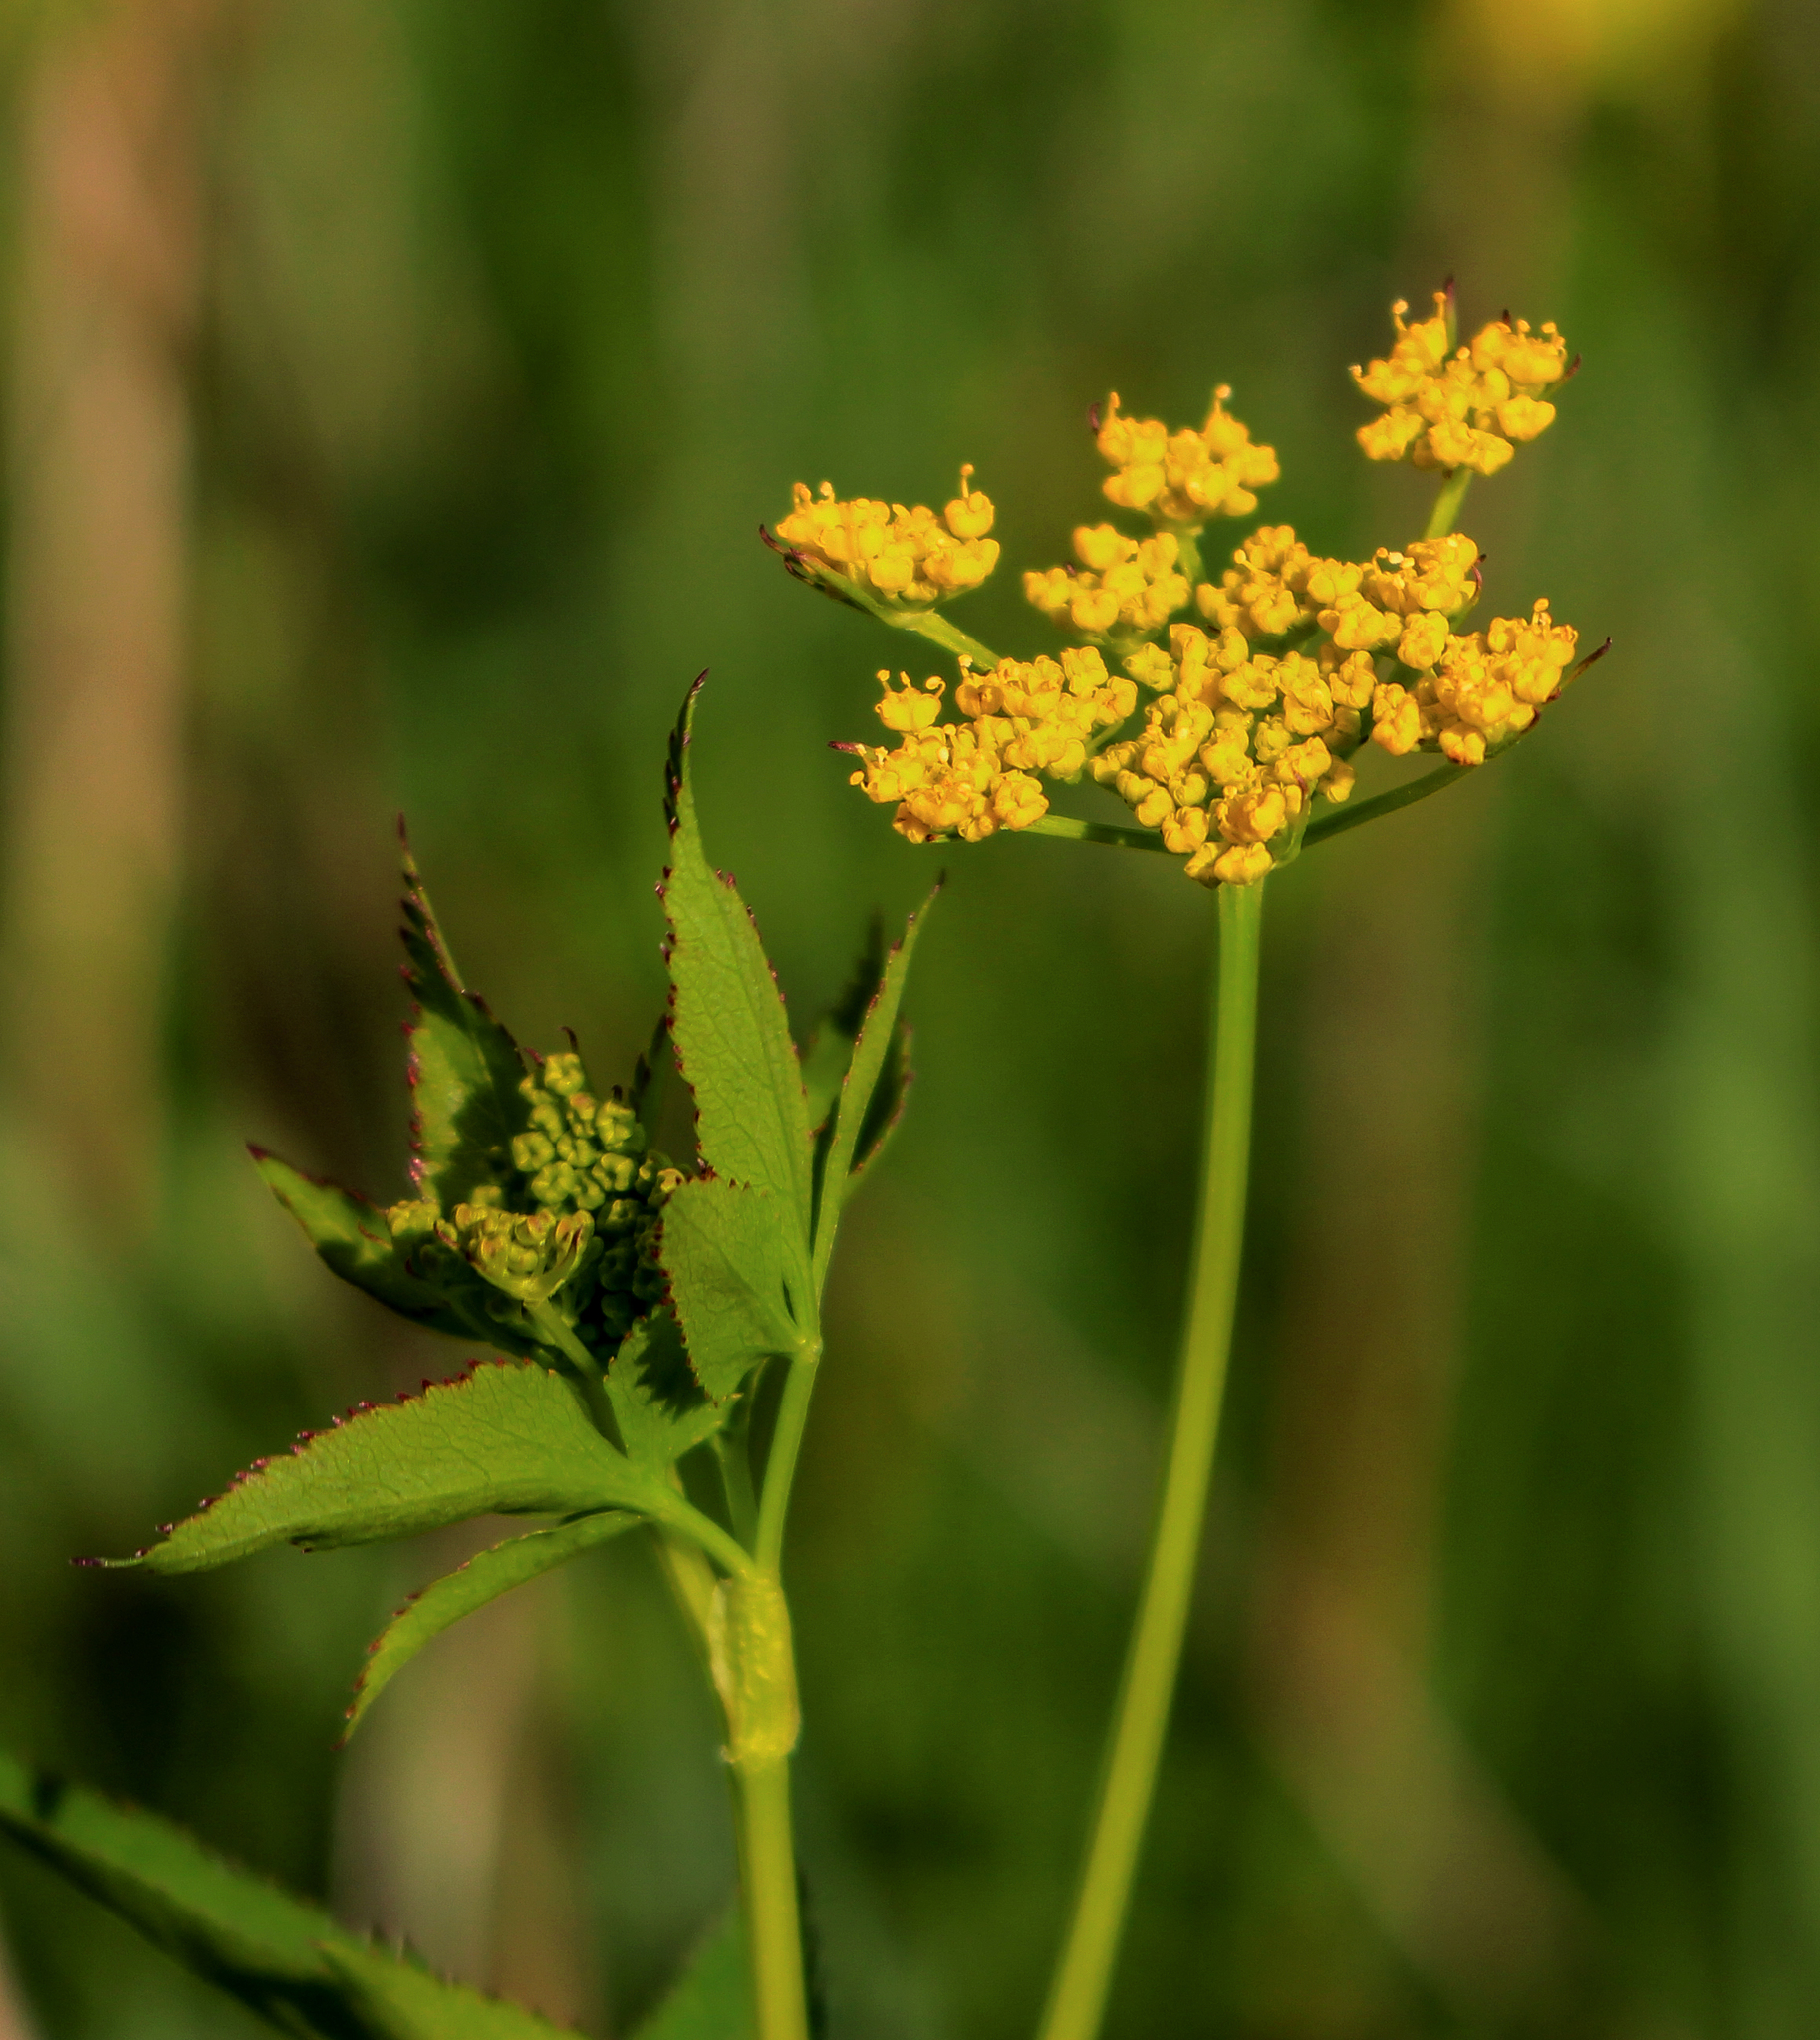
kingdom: Plantae
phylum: Tracheophyta
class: Magnoliopsida
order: Apiales
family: Apiaceae
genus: Zizia
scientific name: Zizia aurea
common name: Golden alexanders
